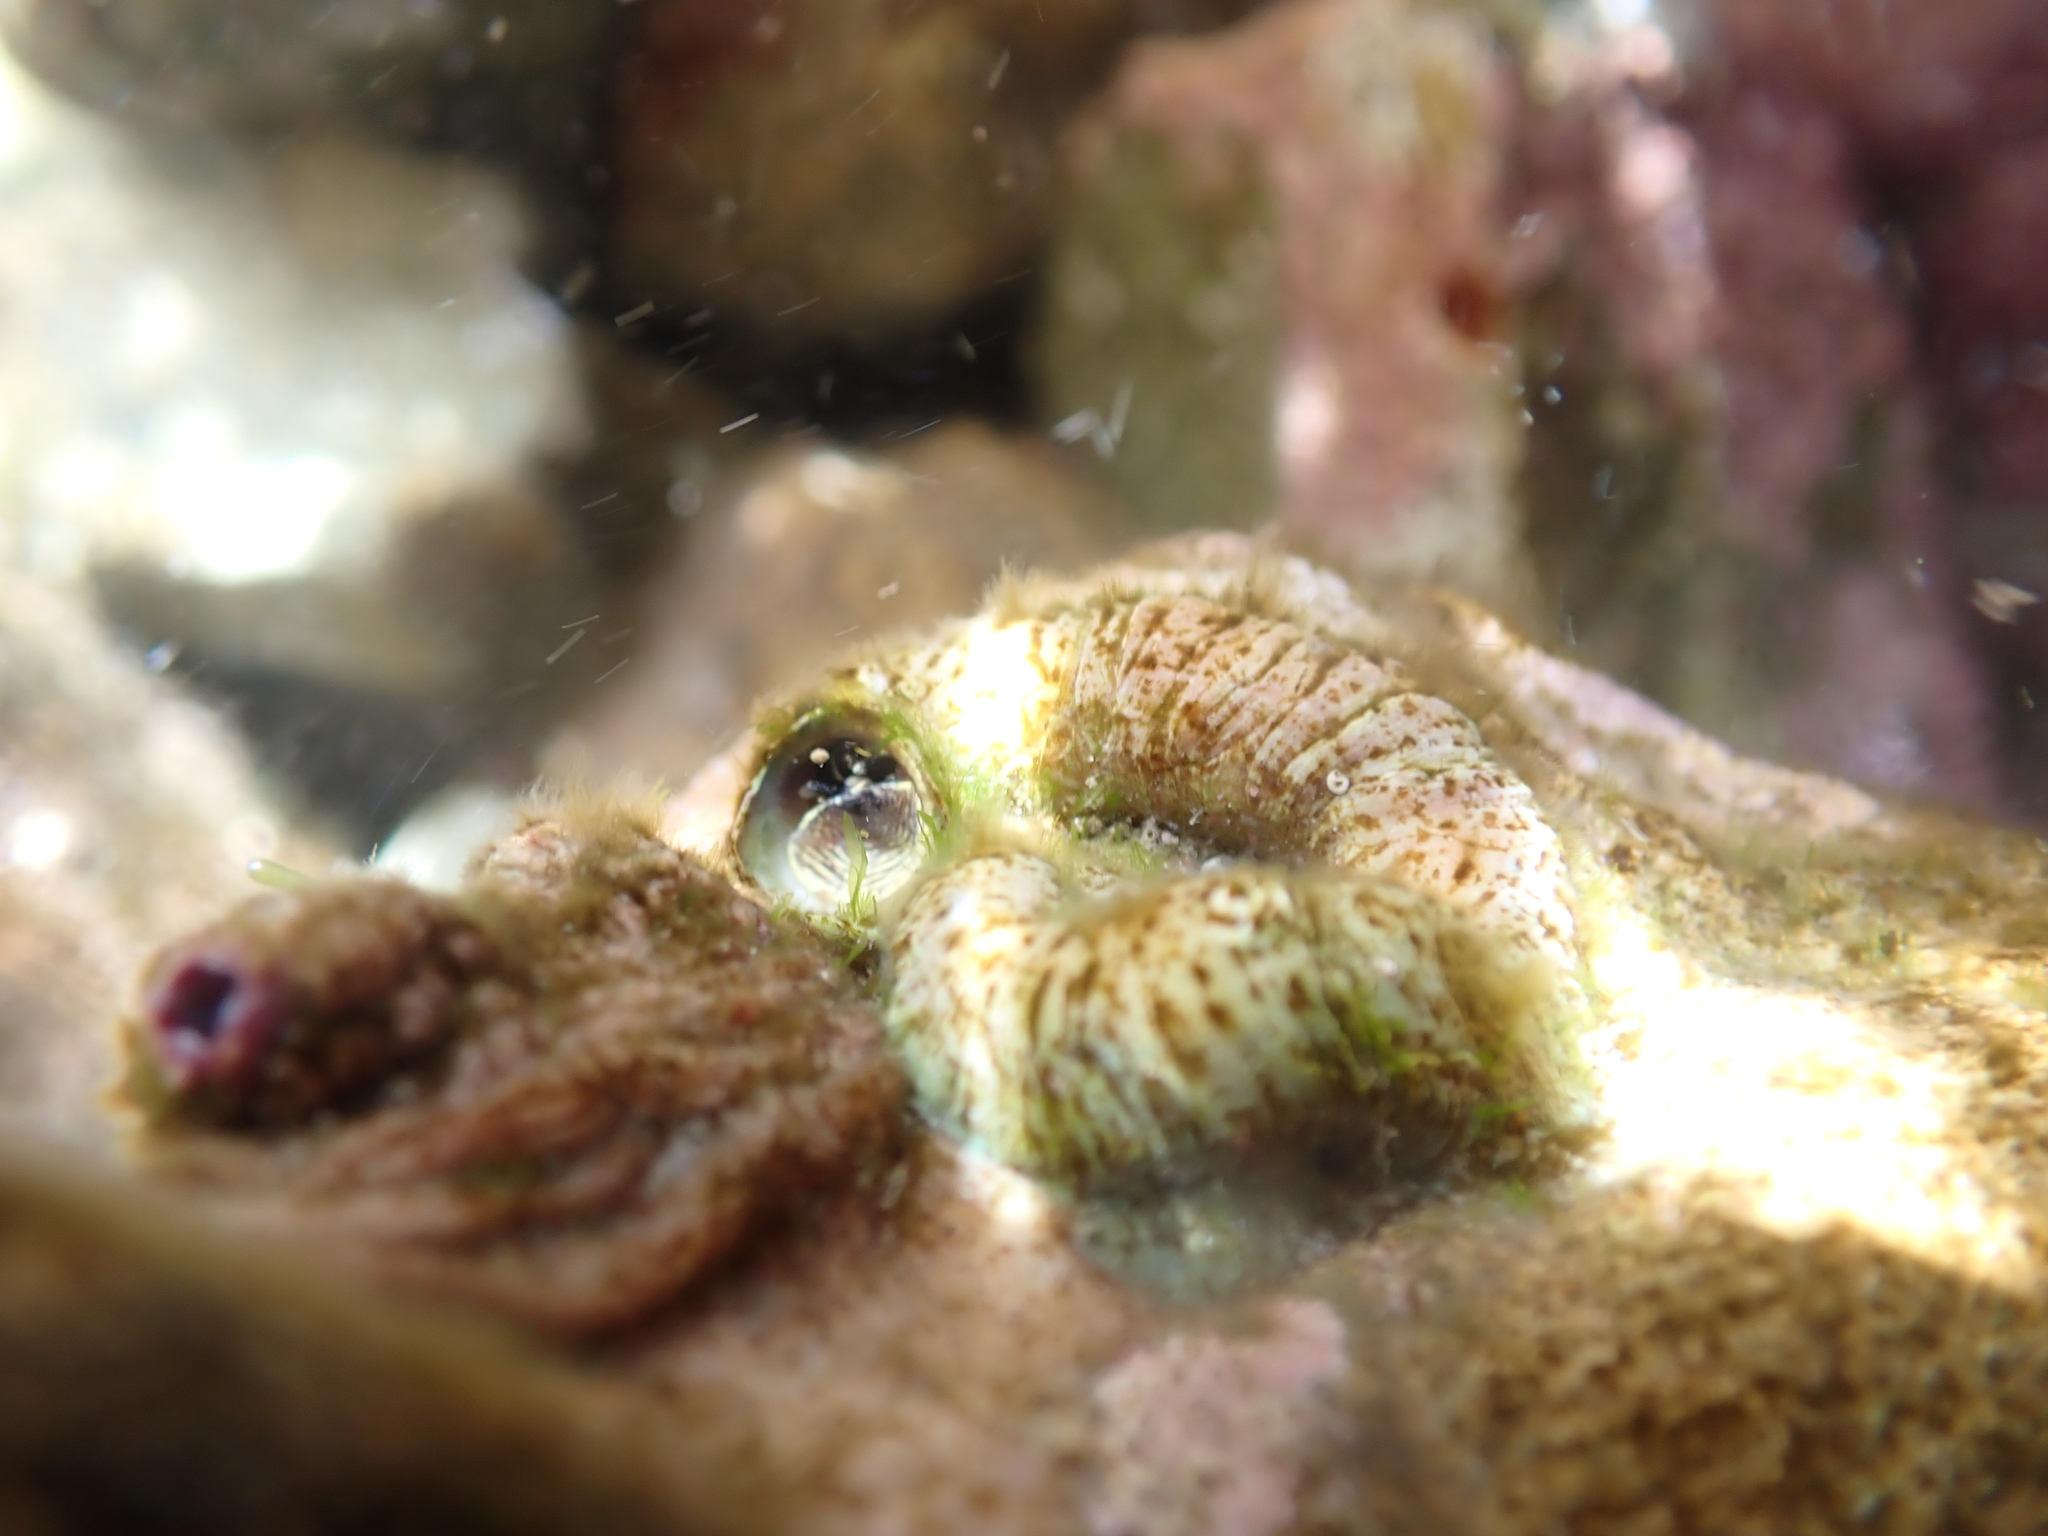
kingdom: Animalia
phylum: Mollusca
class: Gastropoda
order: Littorinimorpha
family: Vermetidae
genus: Thylacodes
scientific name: Thylacodes zelandicus
